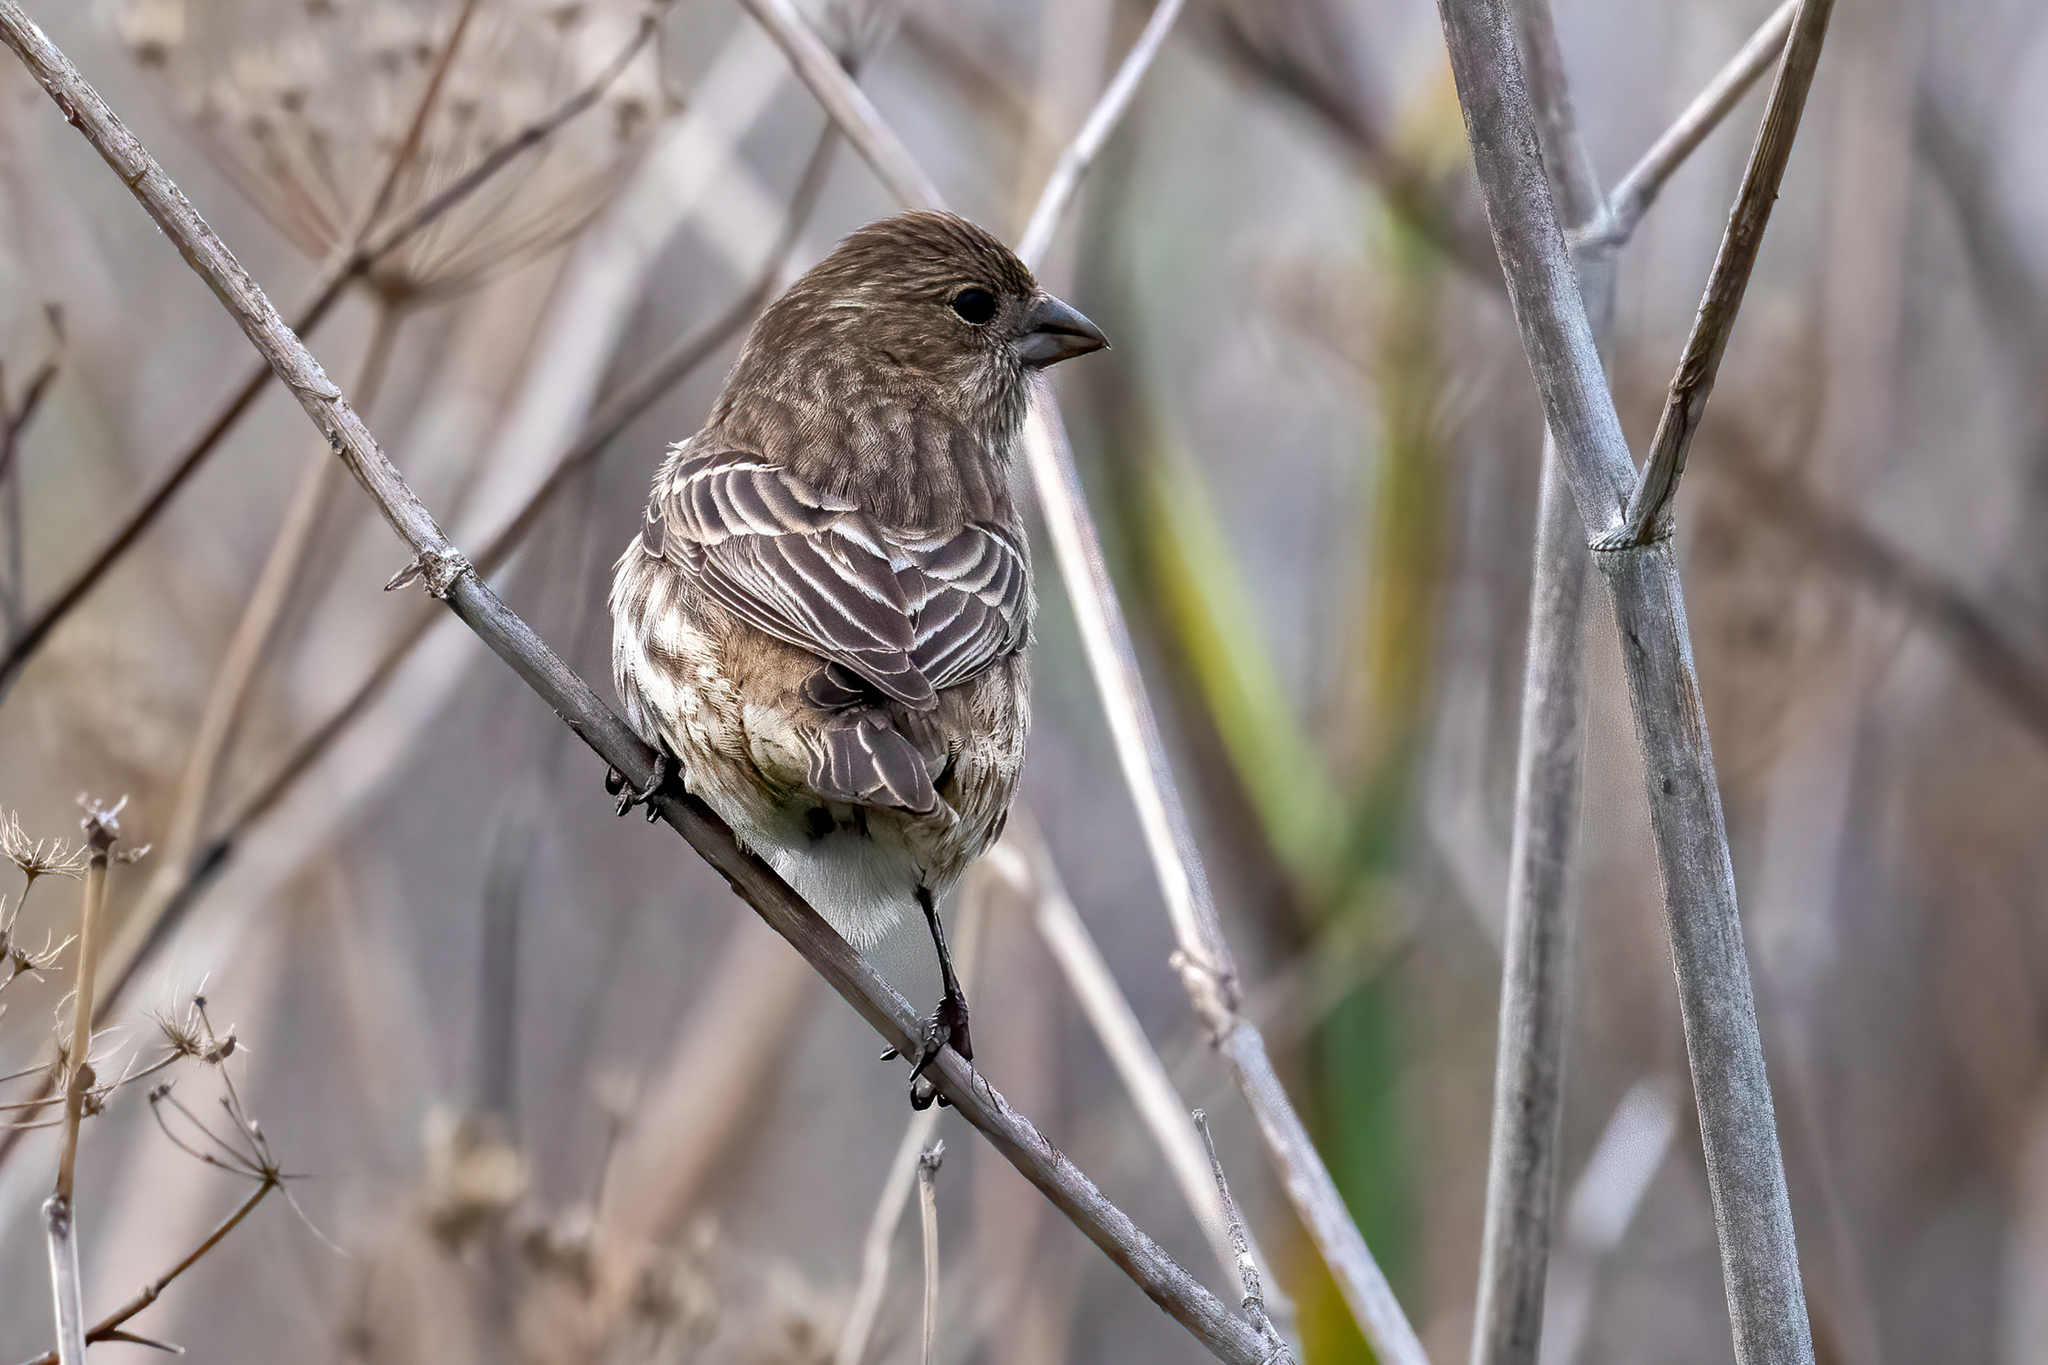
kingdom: Animalia
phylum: Chordata
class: Aves
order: Passeriformes
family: Fringillidae
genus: Haemorhous
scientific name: Haemorhous mexicanus
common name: House finch
